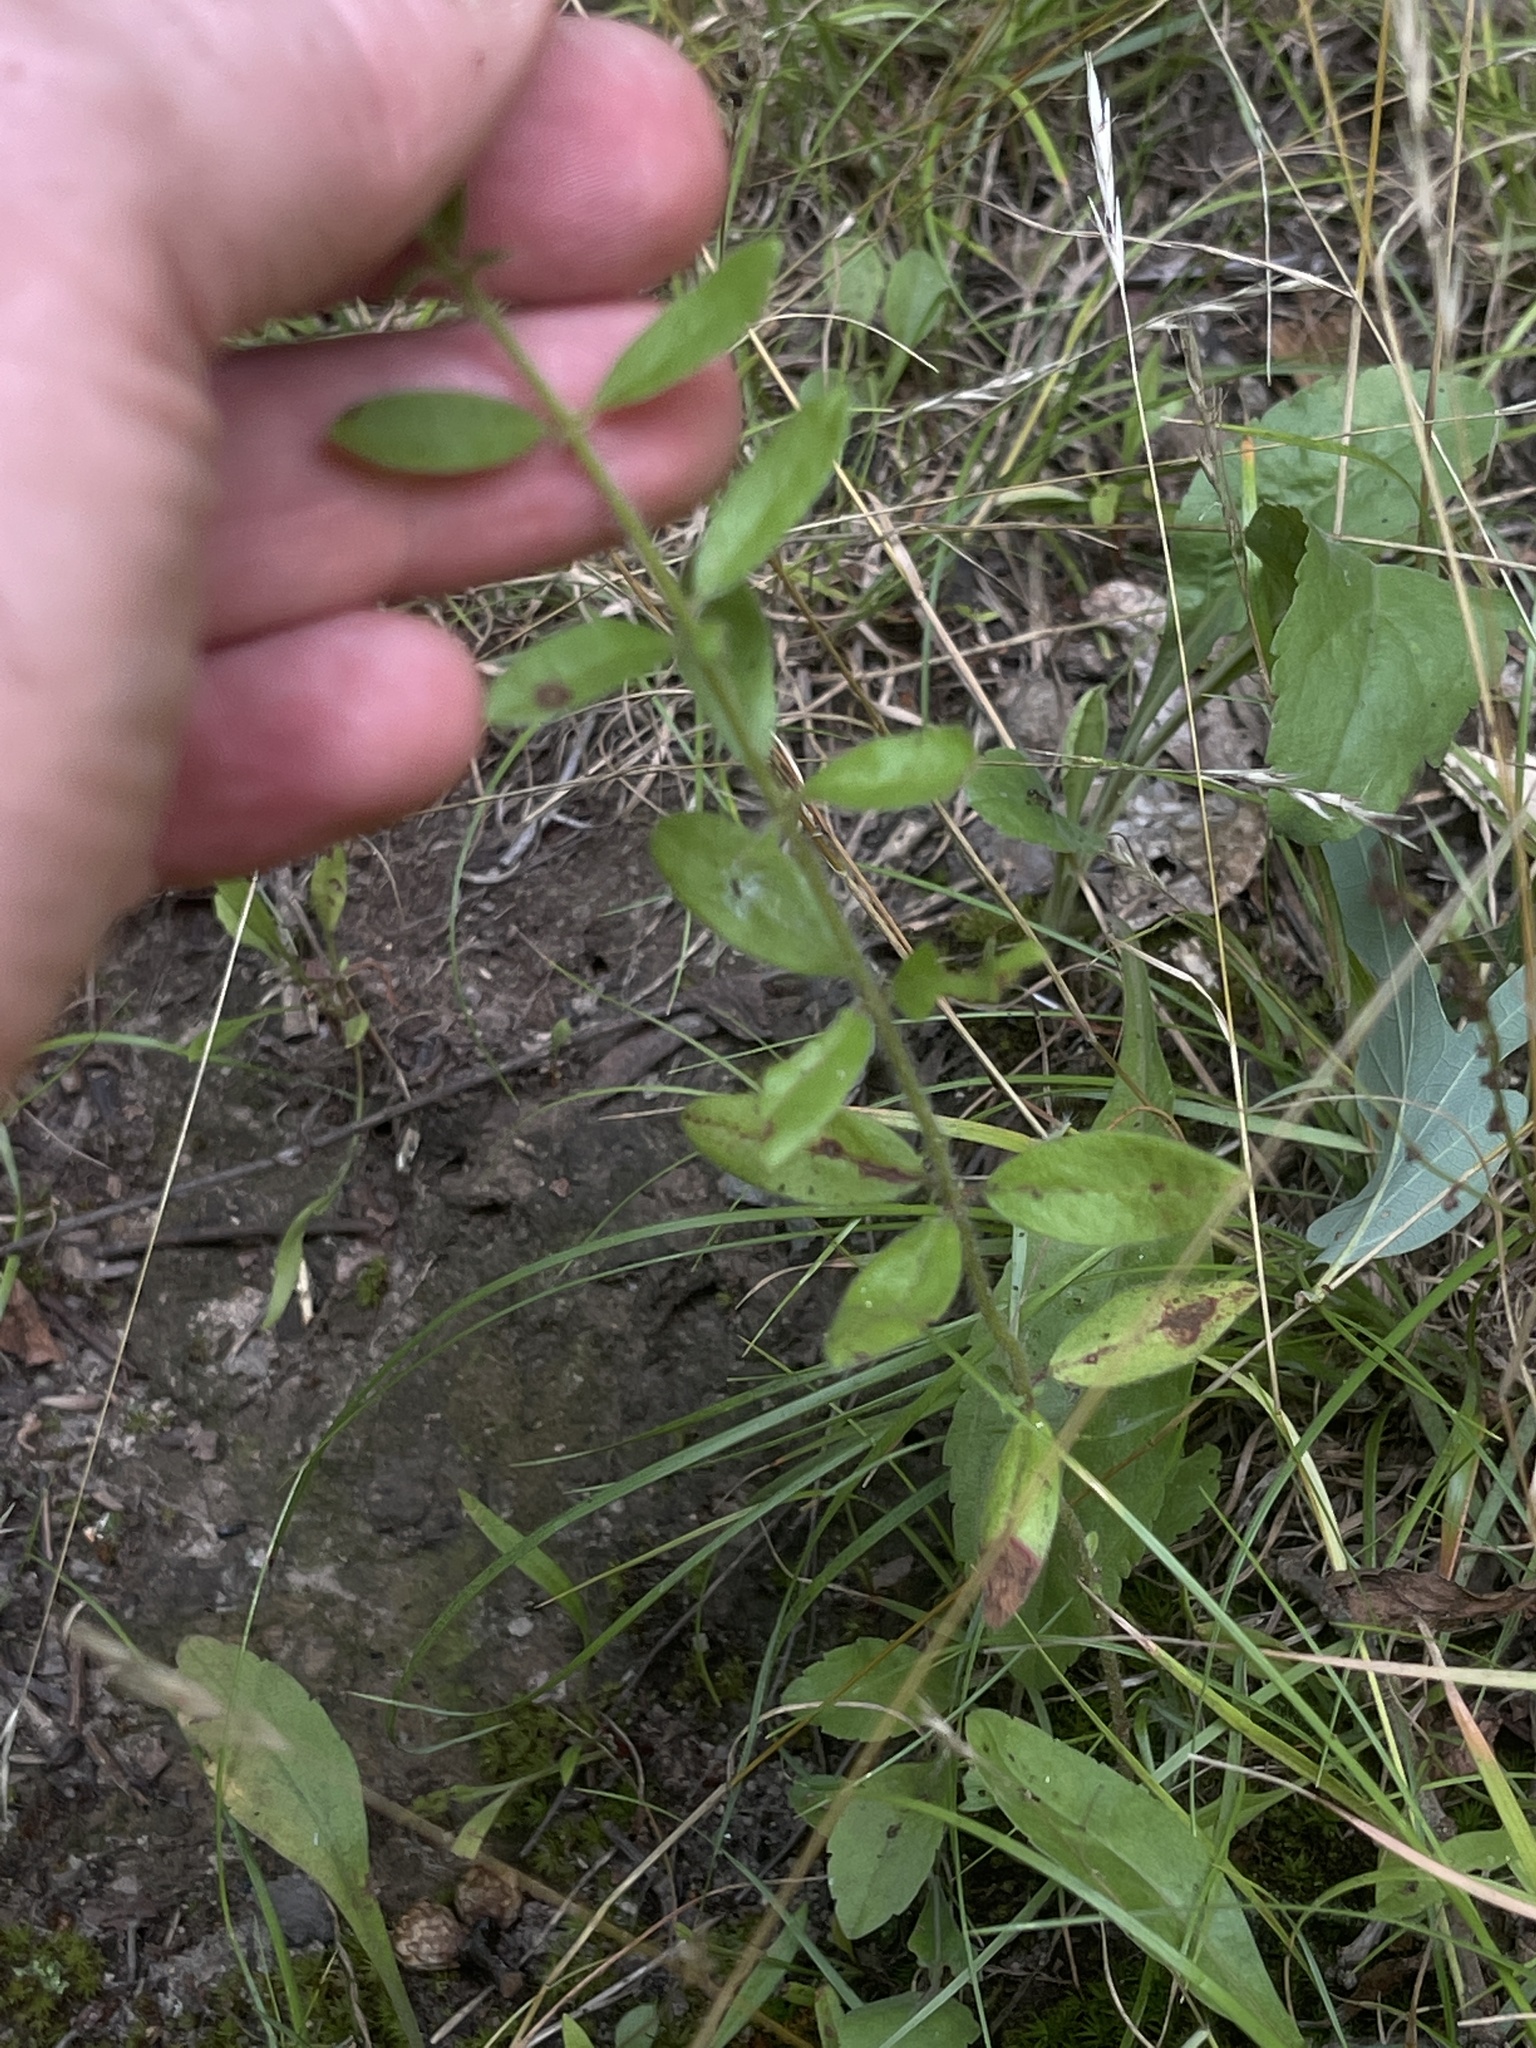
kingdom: Plantae
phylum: Tracheophyta
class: Magnoliopsida
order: Malvales
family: Cistaceae
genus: Lechea
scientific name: Lechea mucronata
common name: Hairy pinweed
